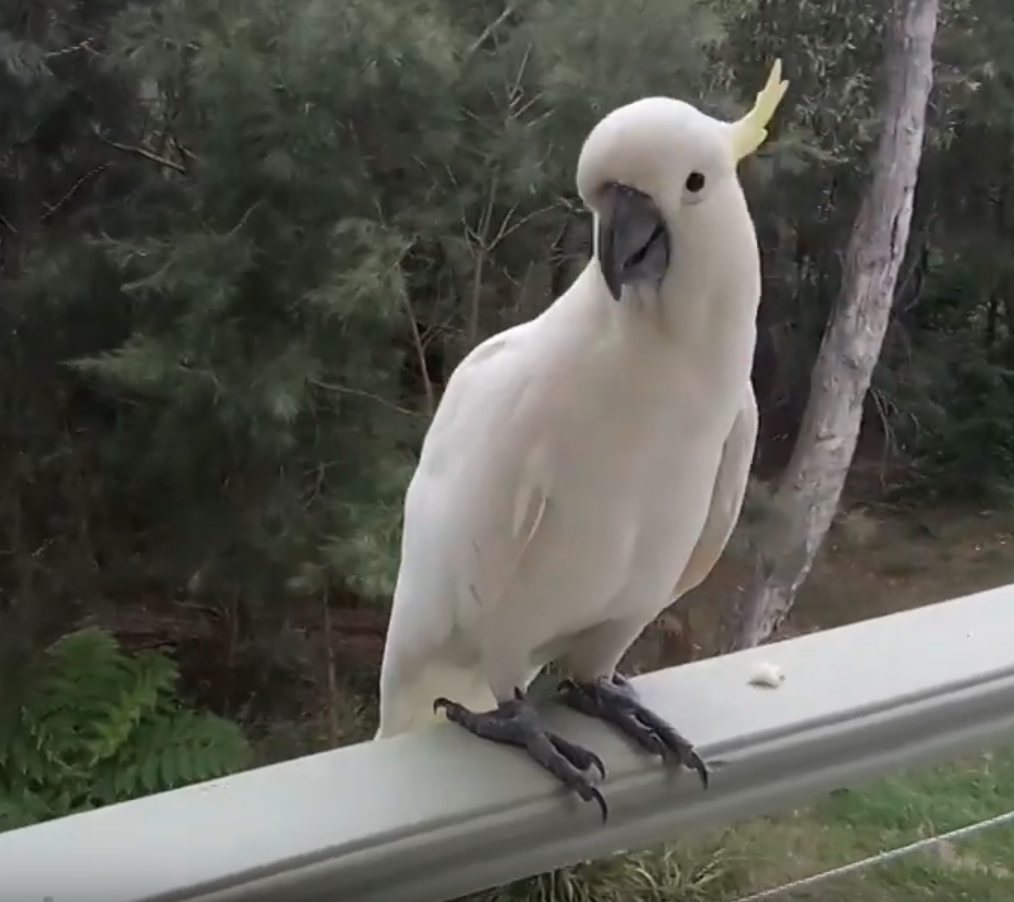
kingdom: Animalia
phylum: Chordata
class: Aves
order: Psittaciformes
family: Psittacidae
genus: Cacatua
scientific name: Cacatua galerita
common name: Sulphur-crested cockatoo
